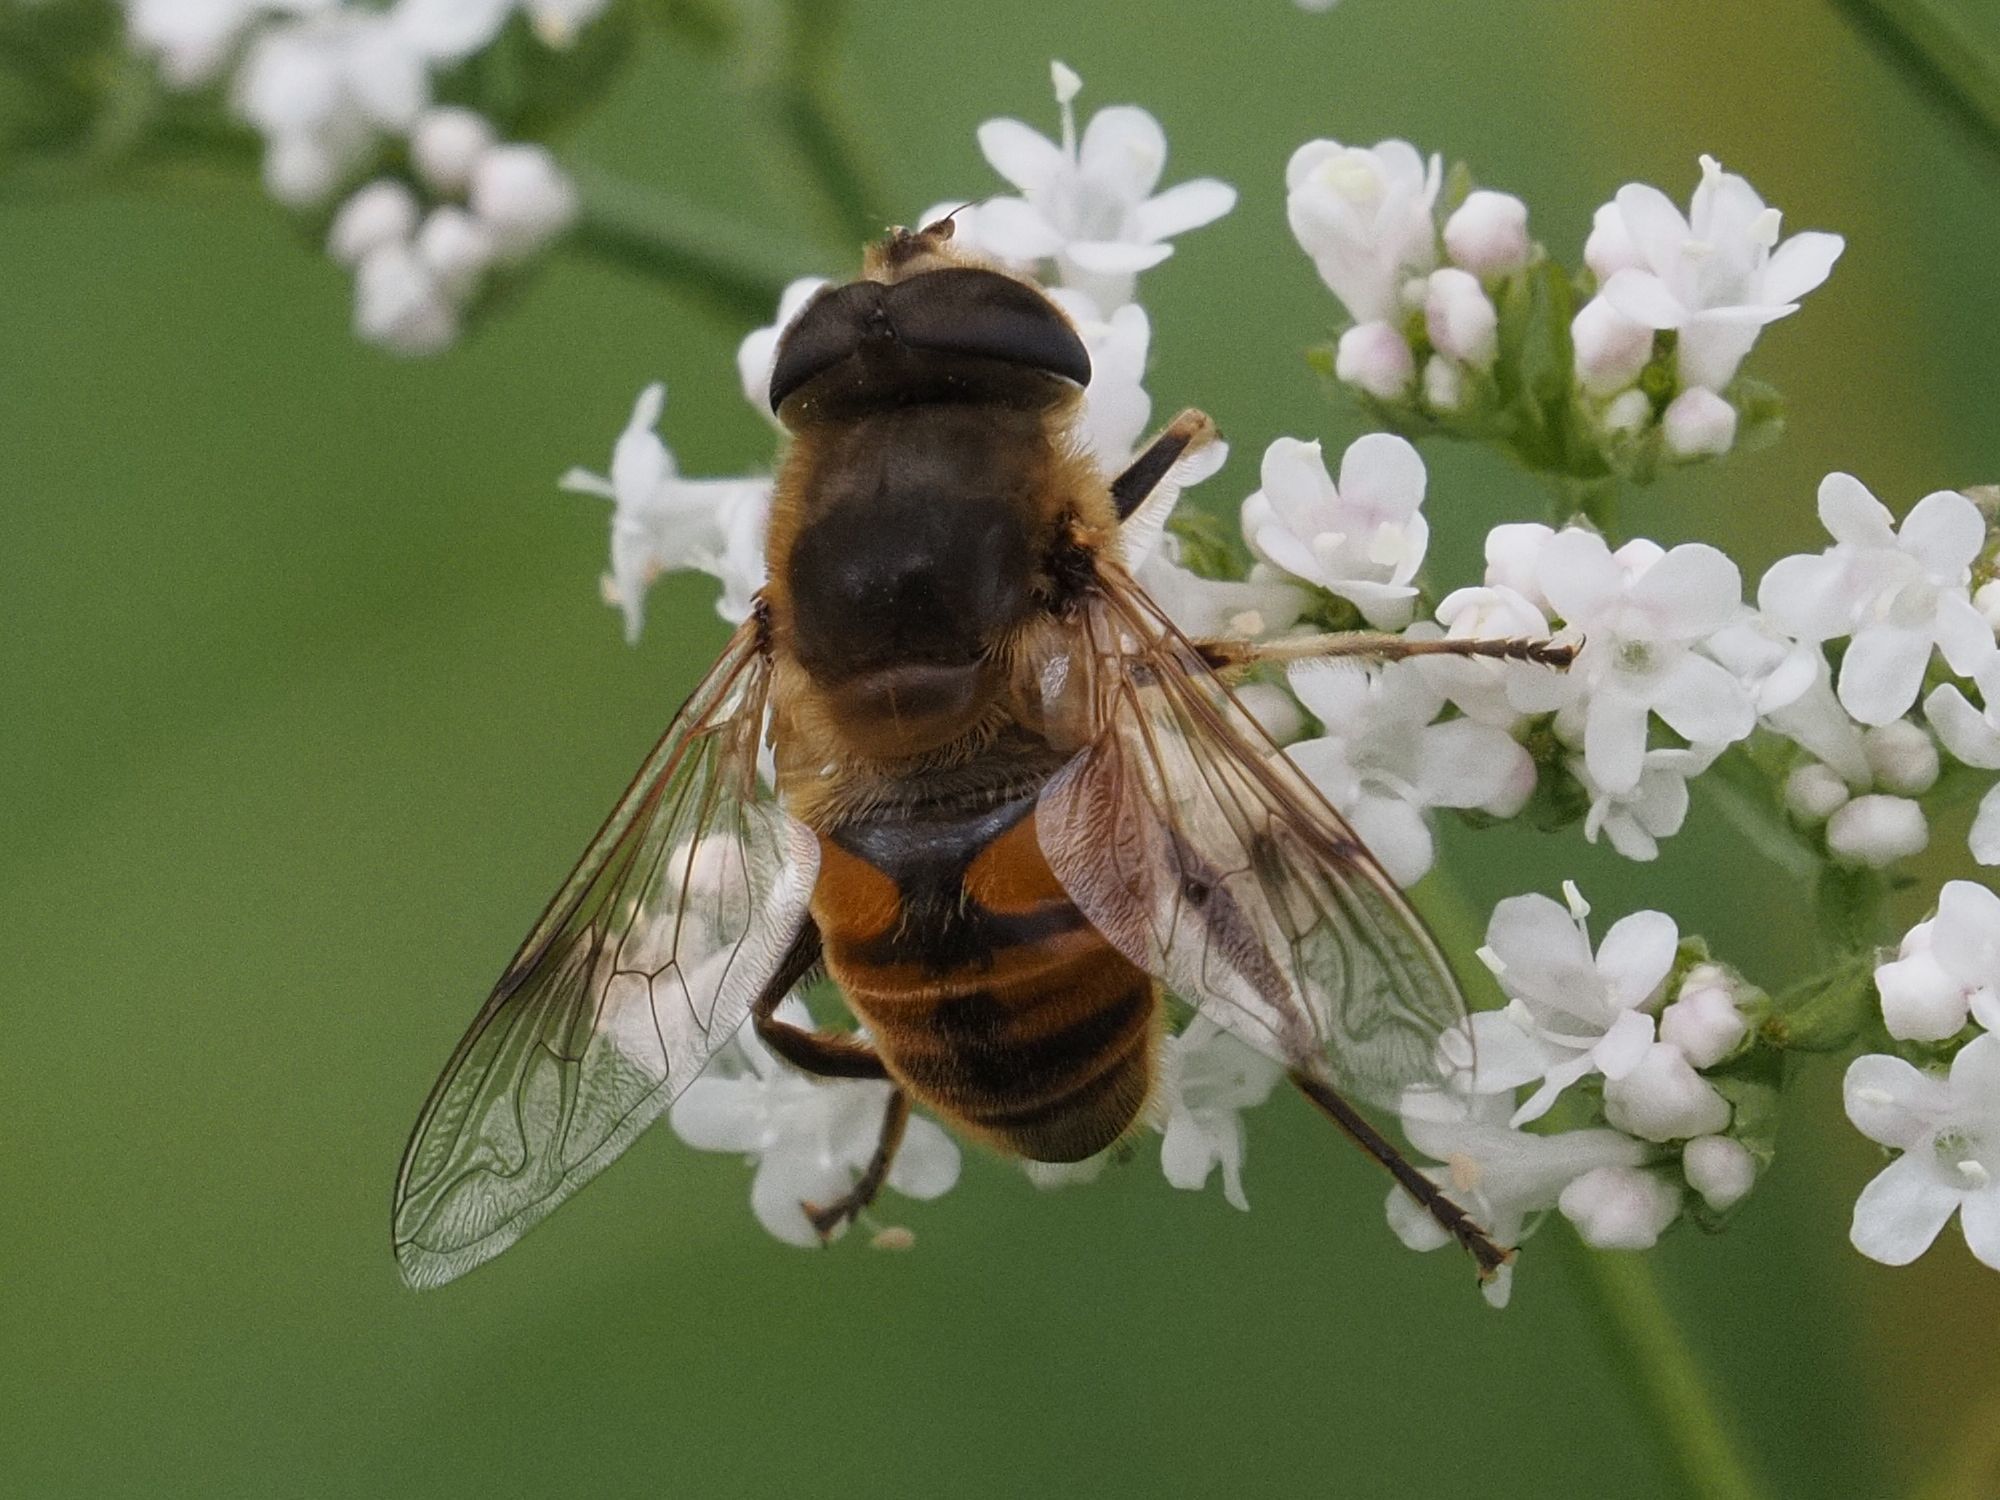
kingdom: Animalia
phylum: Arthropoda
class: Insecta
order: Diptera
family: Syrphidae
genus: Eristalis
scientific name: Eristalis tenax
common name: Drone fly
